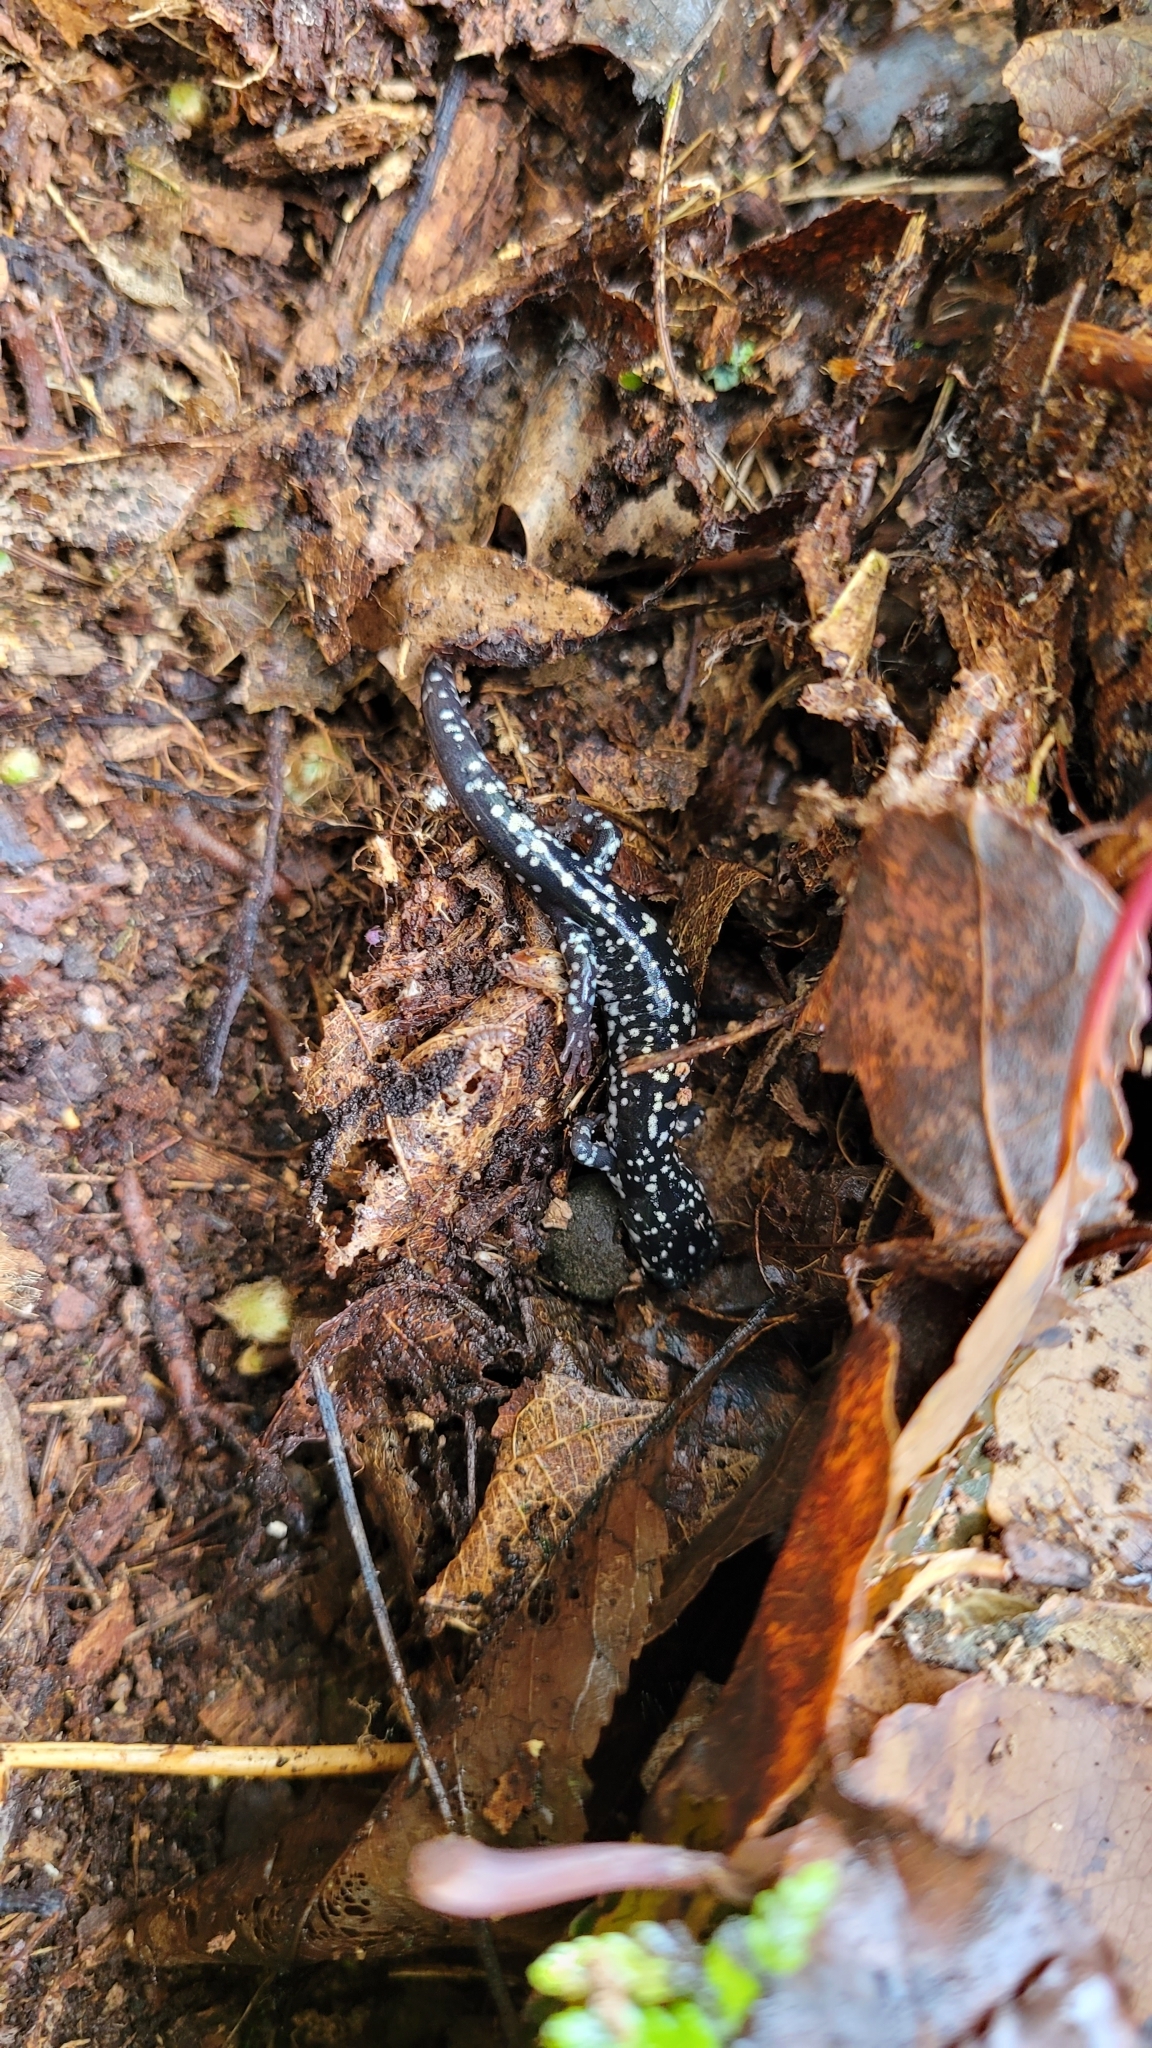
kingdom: Animalia
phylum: Chordata
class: Amphibia
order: Caudata
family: Plethodontidae
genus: Plethodon
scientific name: Plethodon glutinosus
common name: Northern slimy salamander
